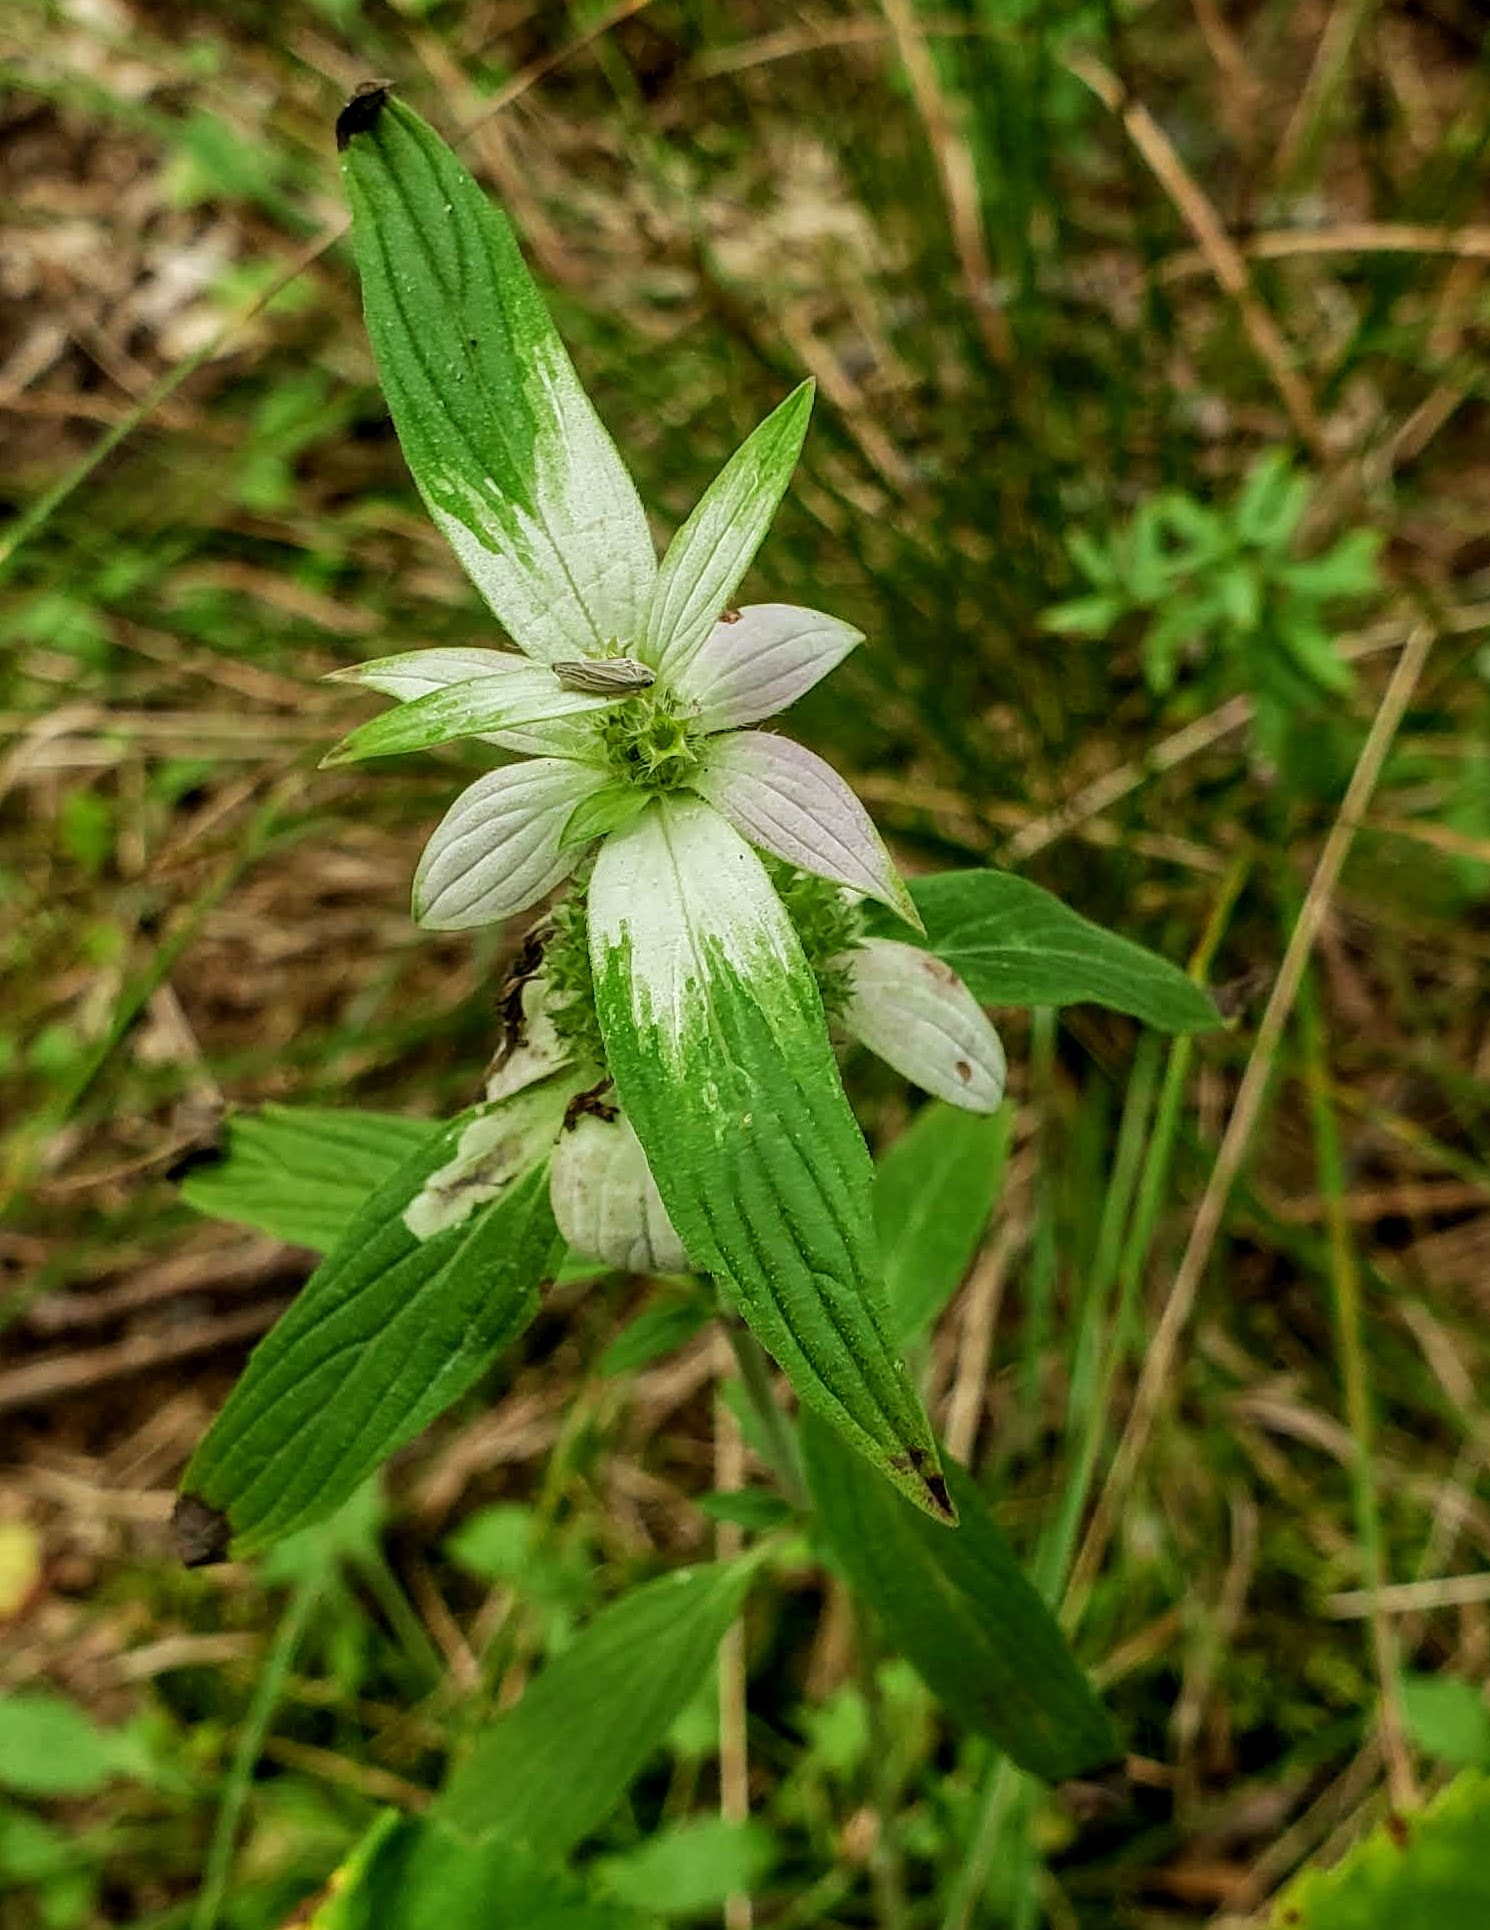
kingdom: Plantae
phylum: Tracheophyta
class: Magnoliopsida
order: Lamiales
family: Lamiaceae
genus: Monarda
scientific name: Monarda punctata
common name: Dotted monarda
